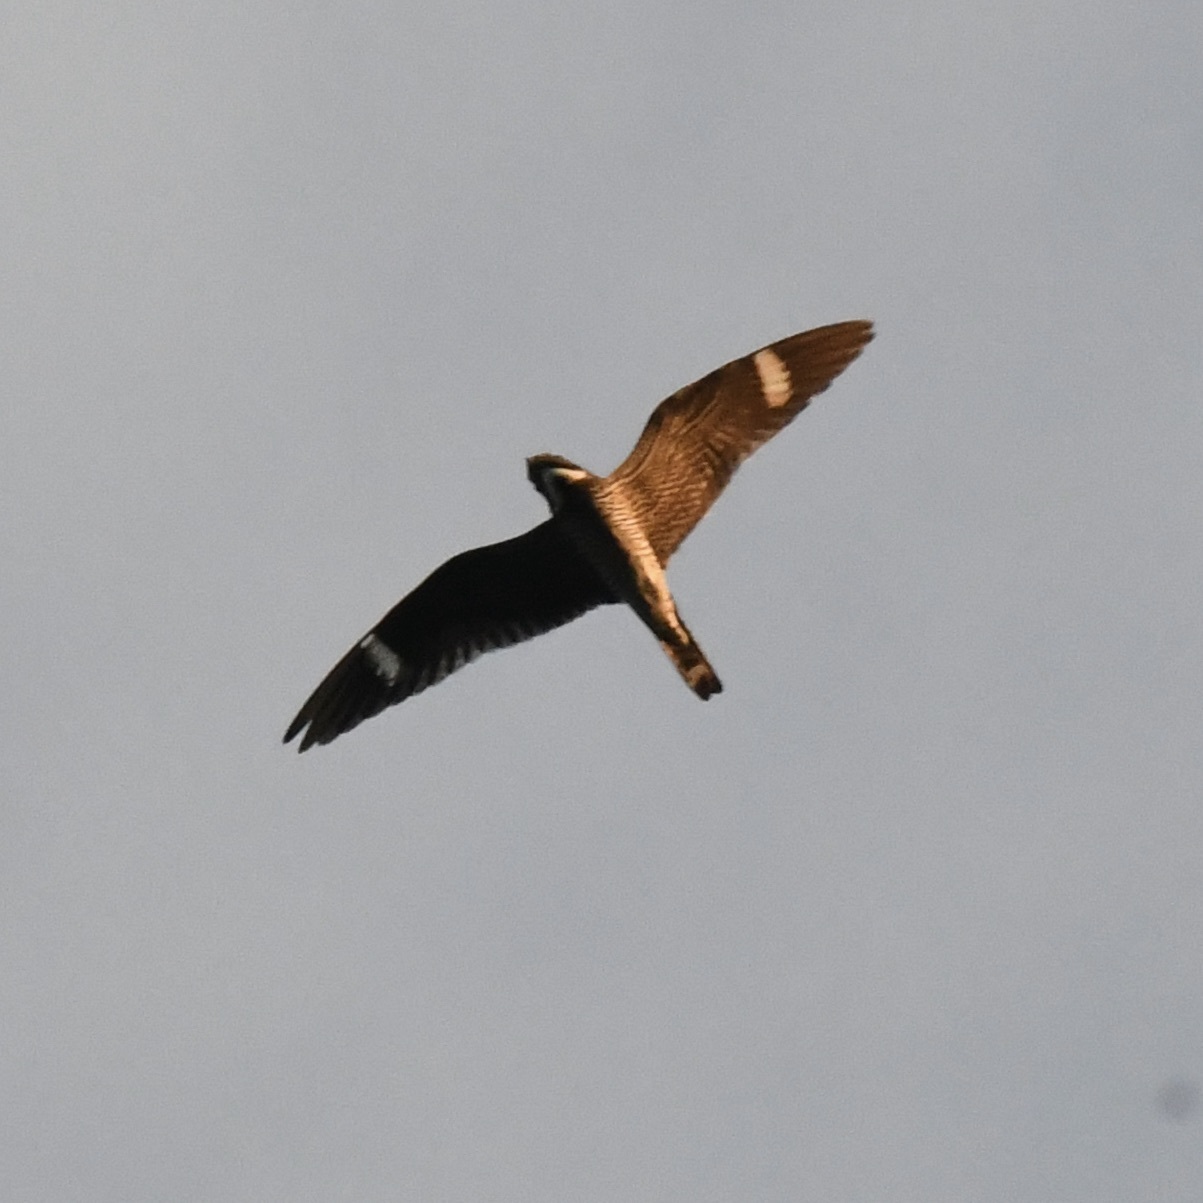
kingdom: Animalia
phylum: Chordata
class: Aves
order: Caprimulgiformes
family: Caprimulgidae
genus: Chordeiles
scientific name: Chordeiles minor
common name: Common nighthawk
